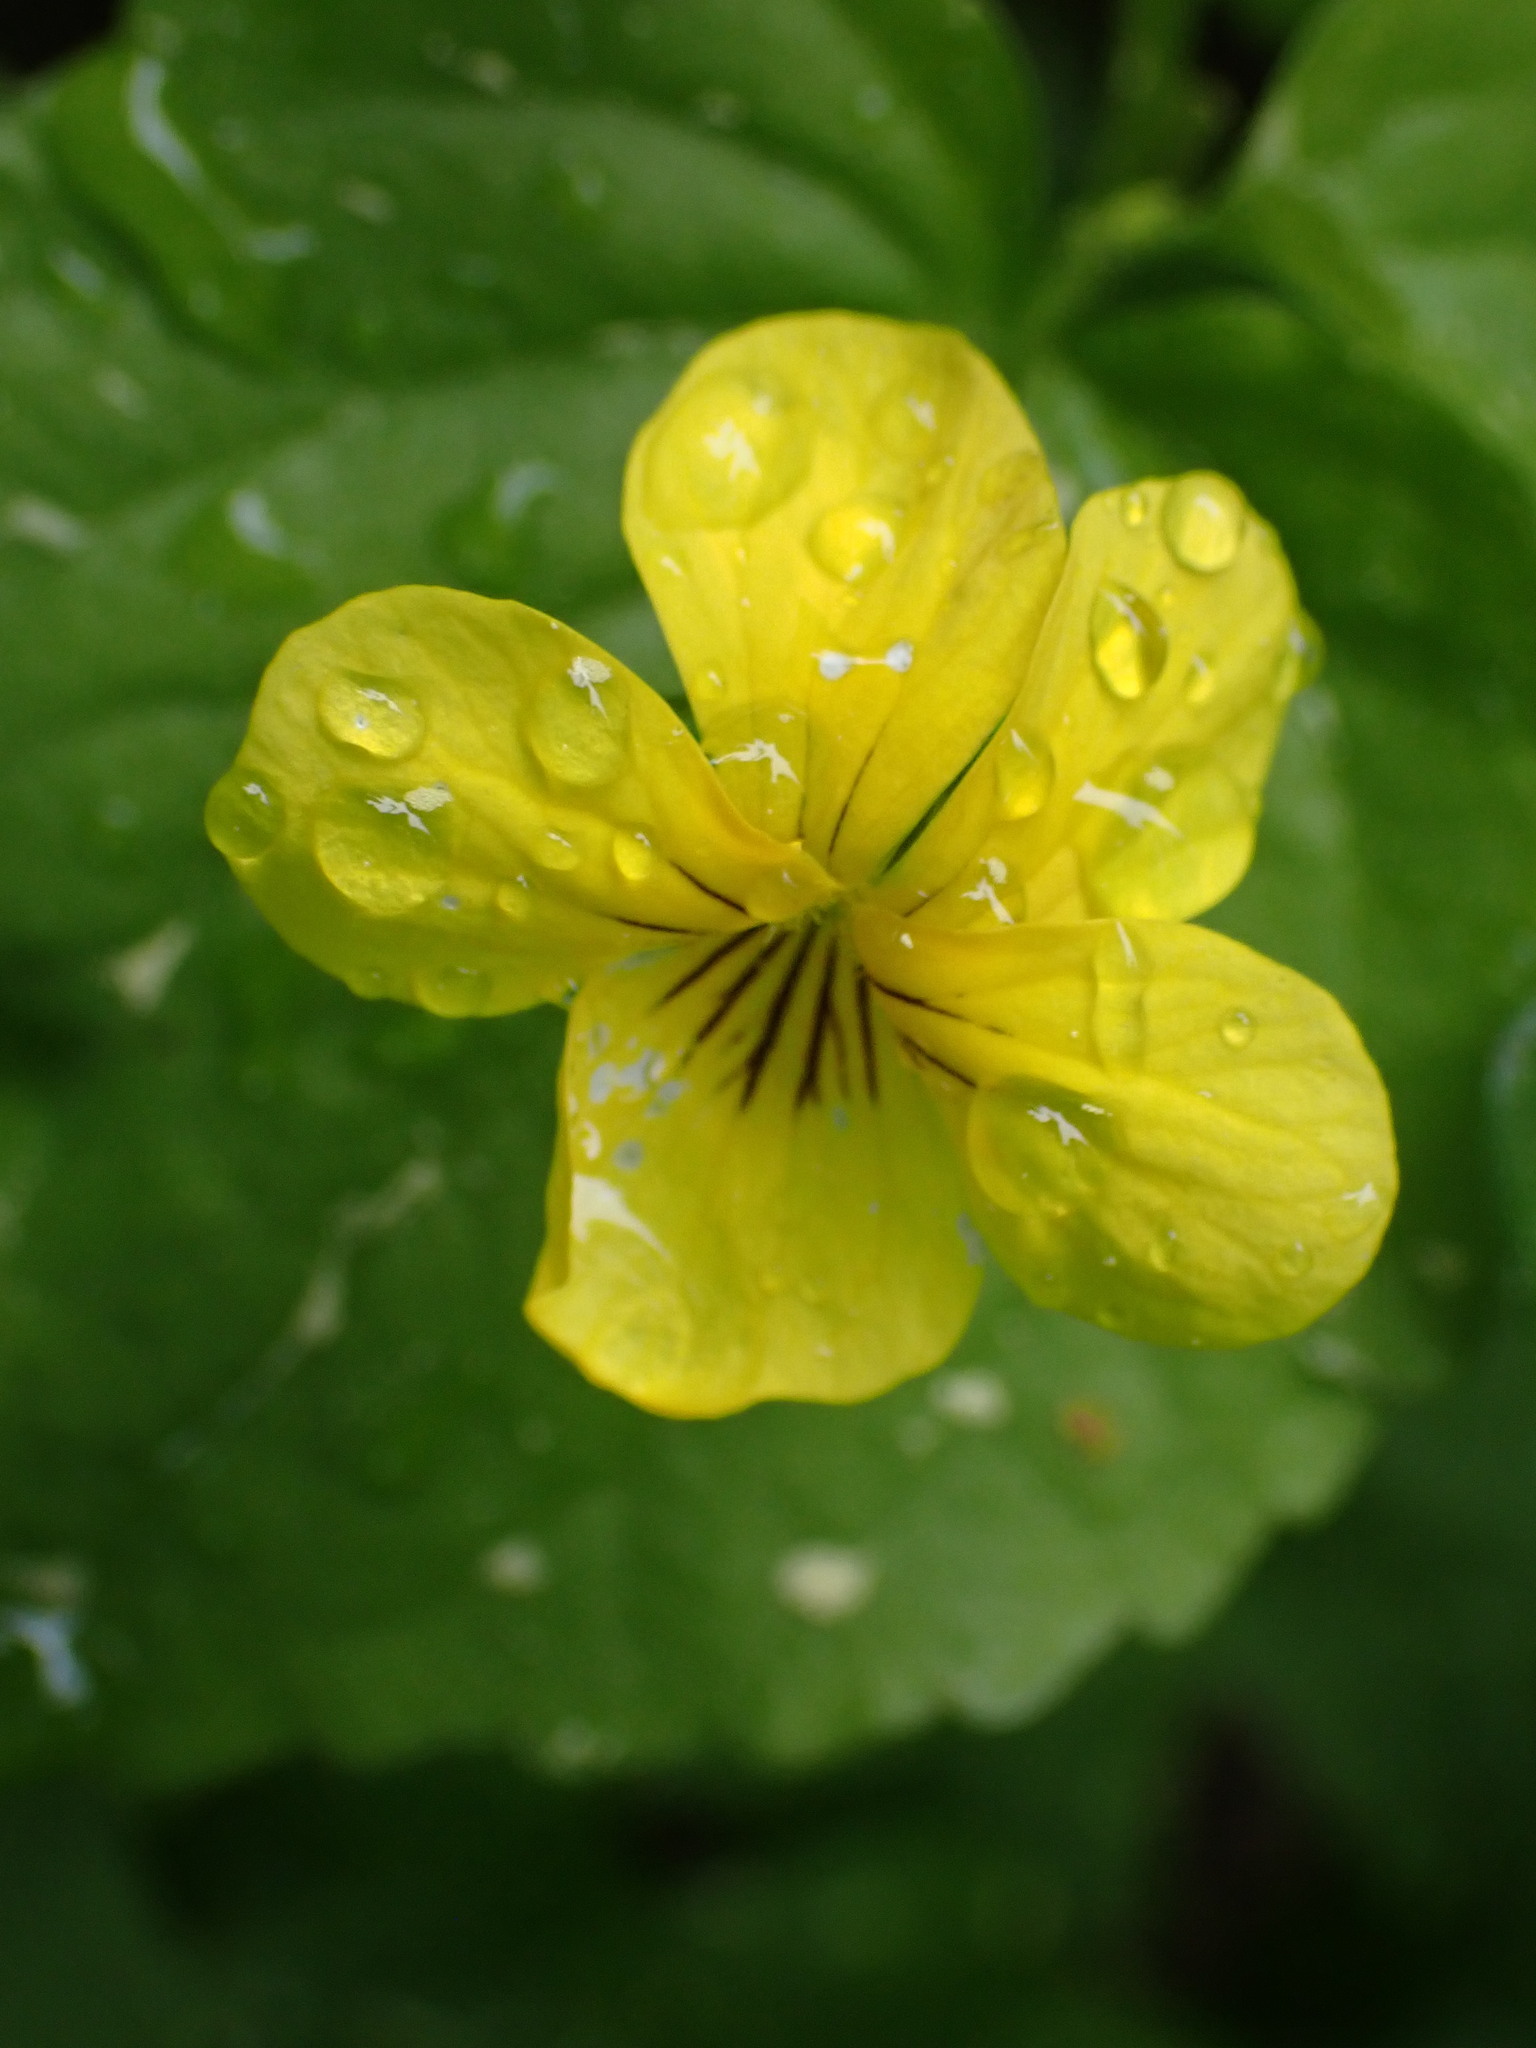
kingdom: Plantae
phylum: Tracheophyta
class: Magnoliopsida
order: Malpighiales
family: Violaceae
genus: Viola
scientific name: Viola glabella
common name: Stream violet
